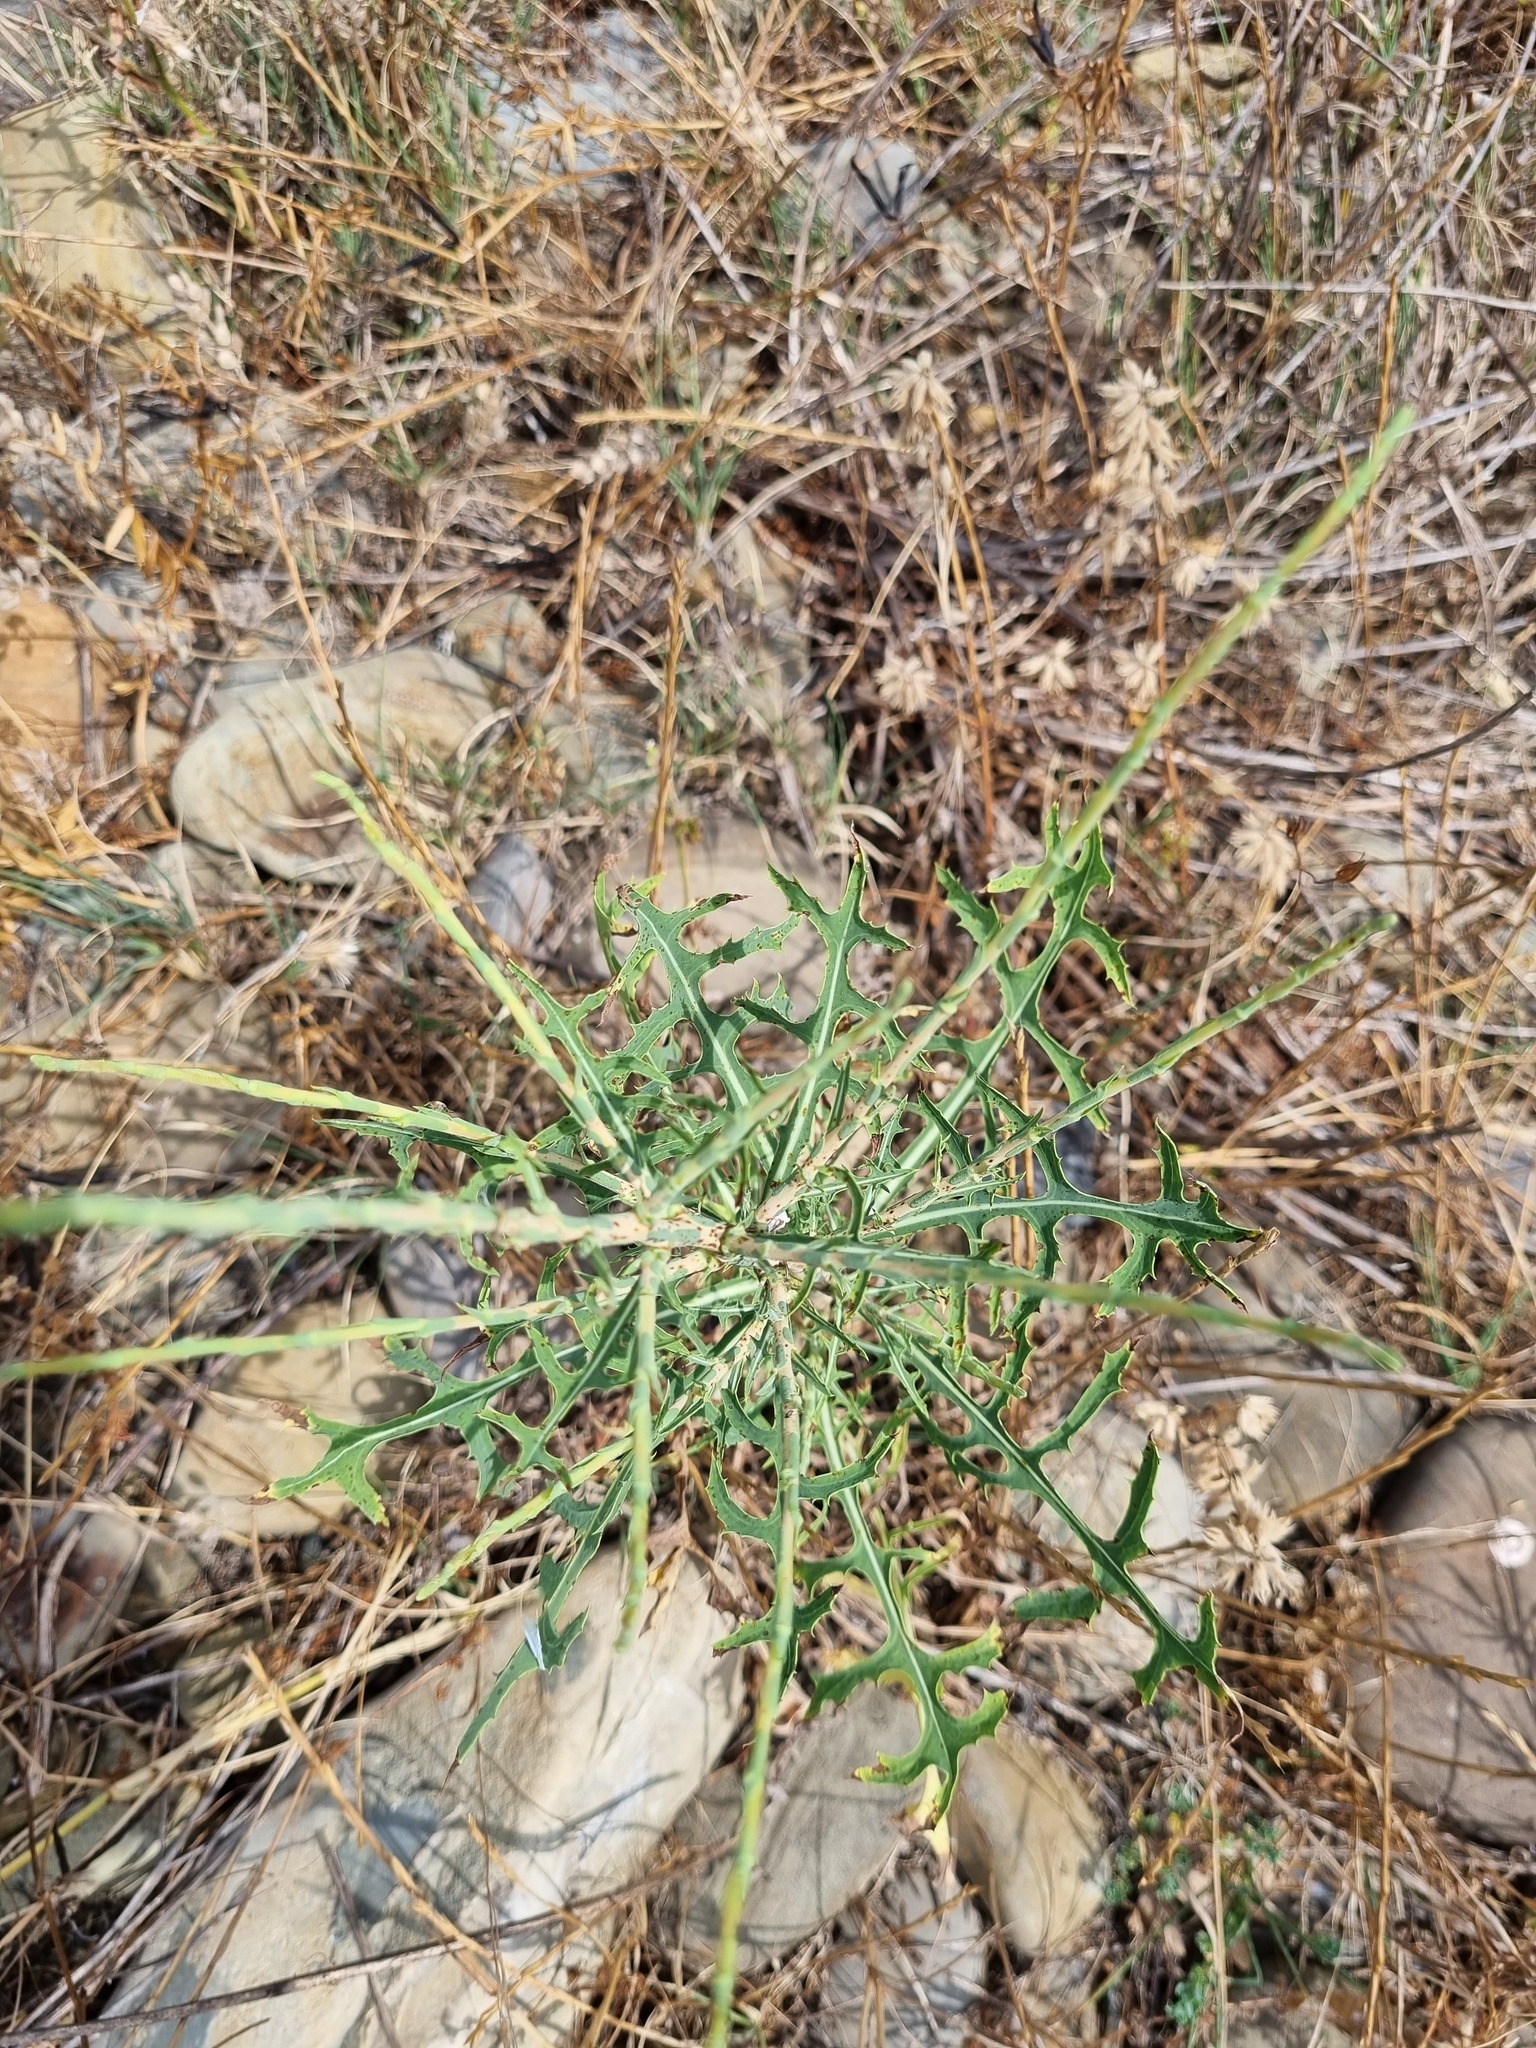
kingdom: Plantae
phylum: Tracheophyta
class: Magnoliopsida
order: Asterales
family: Asteraceae
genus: Lactuca
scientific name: Lactuca viminea
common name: Pliant lettuce
